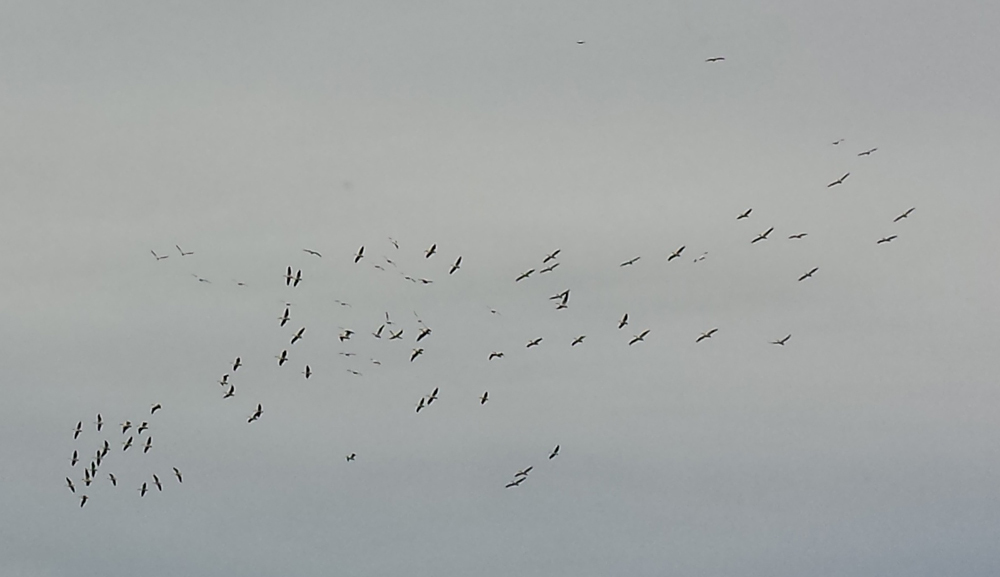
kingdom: Animalia
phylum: Chordata
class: Aves
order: Pelecaniformes
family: Pelecanidae
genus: Pelecanus
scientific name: Pelecanus erythrorhynchos
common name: American white pelican
